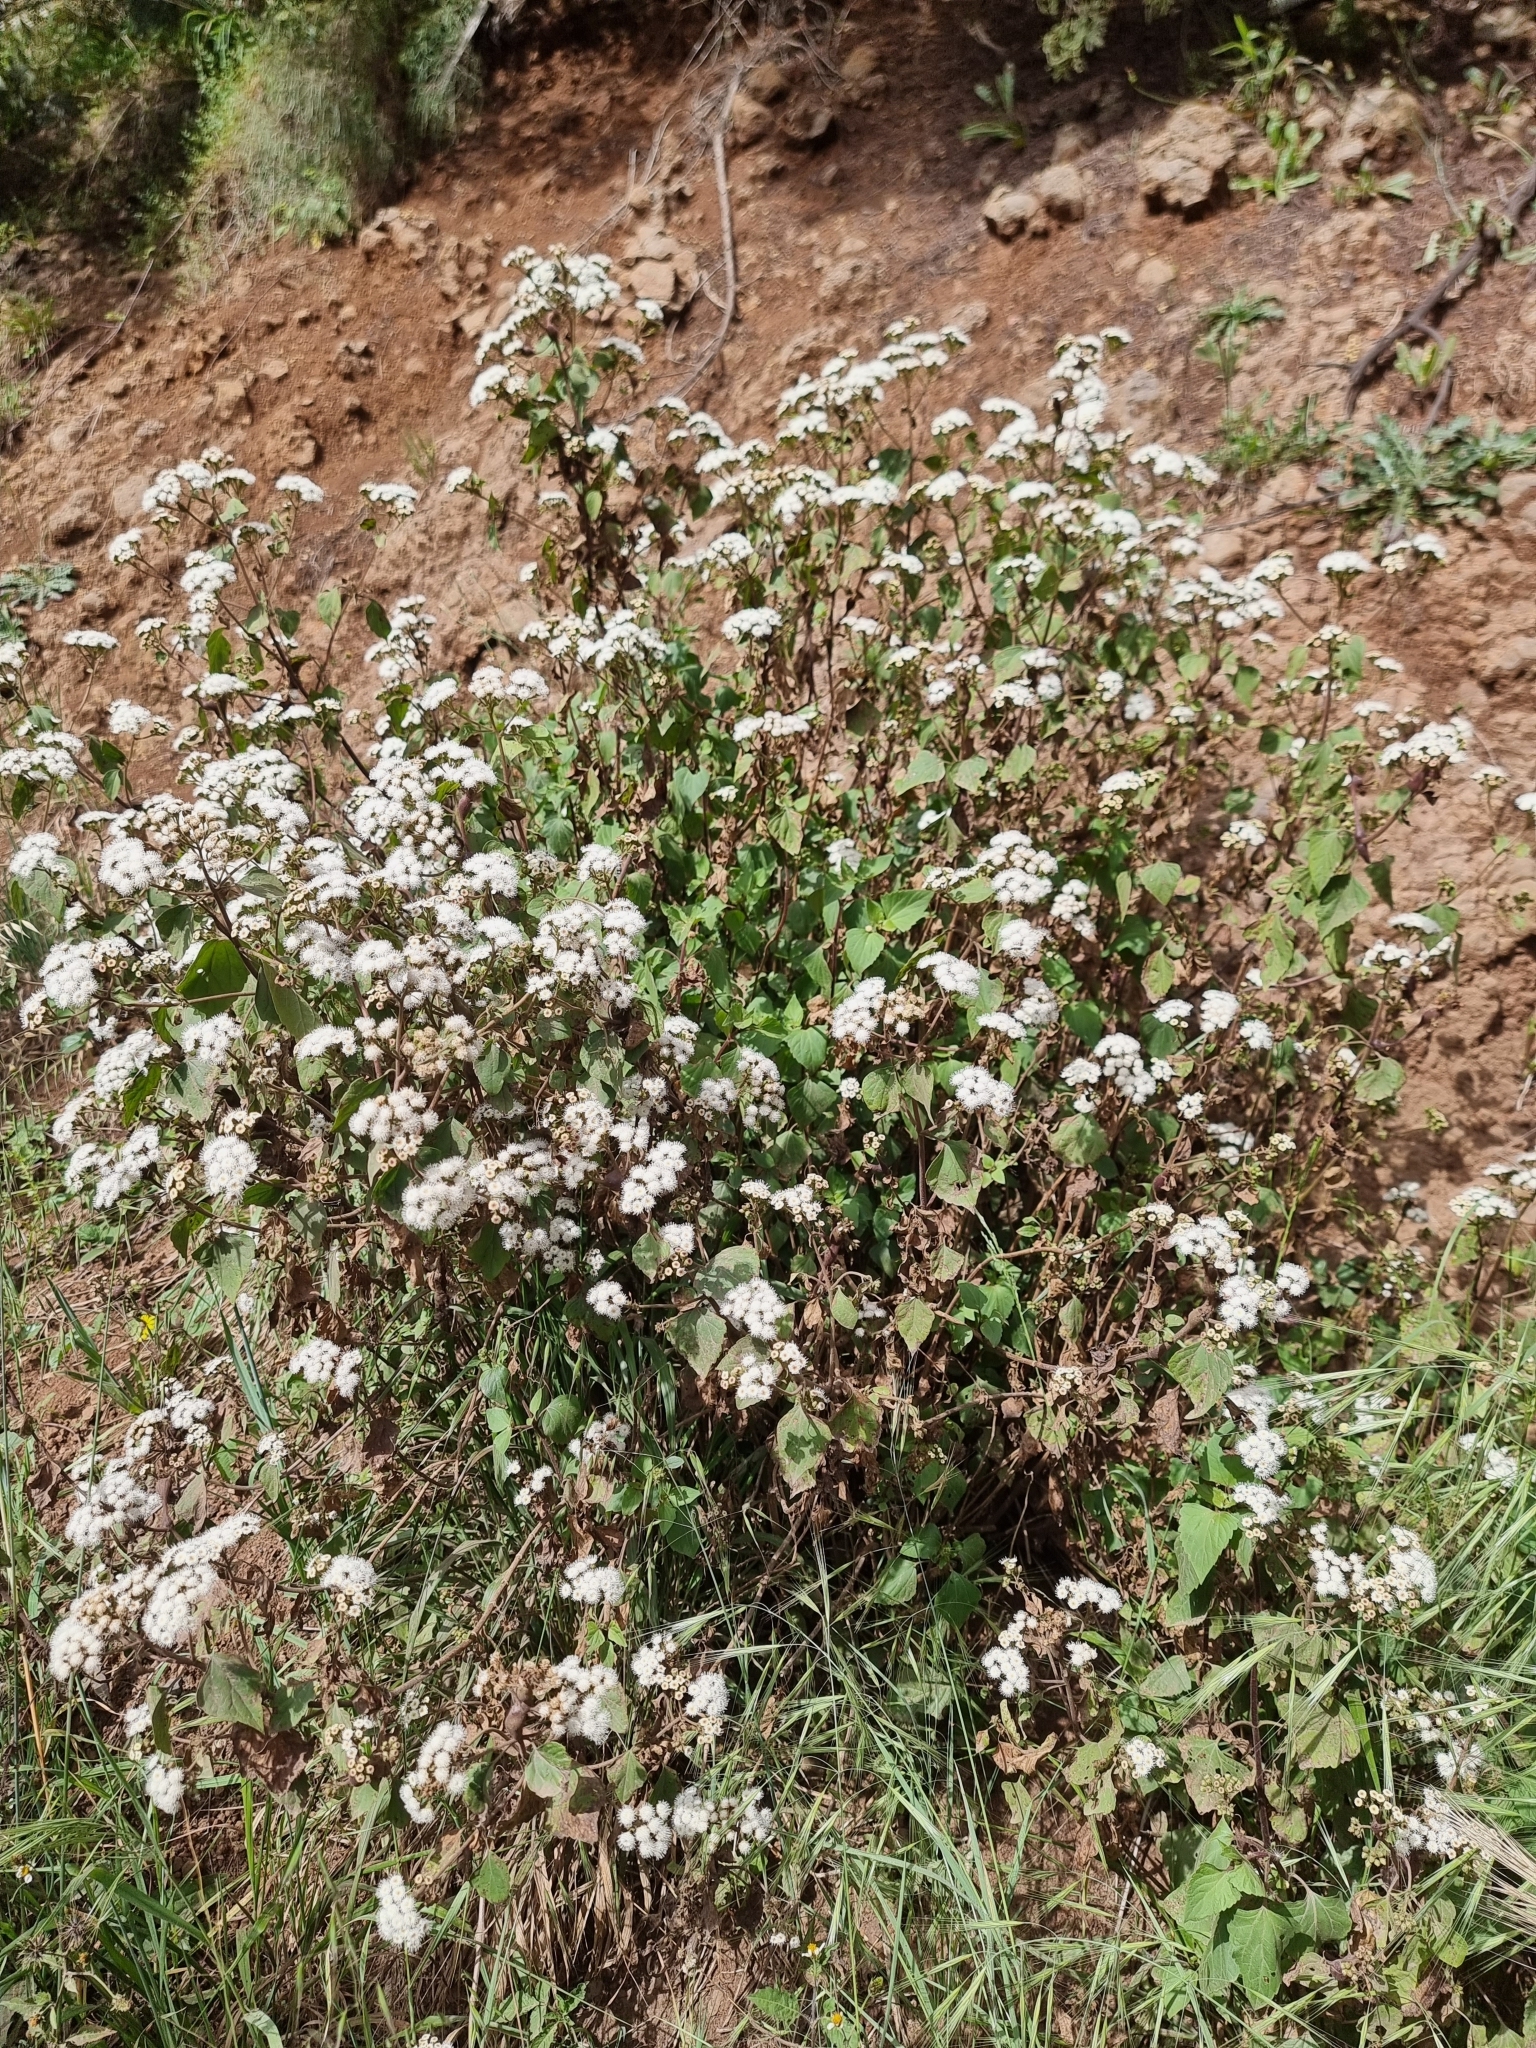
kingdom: Plantae
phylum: Tracheophyta
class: Magnoliopsida
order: Asterales
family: Asteraceae
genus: Ageratina
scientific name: Ageratina adenophora
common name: Sticky snakeroot
